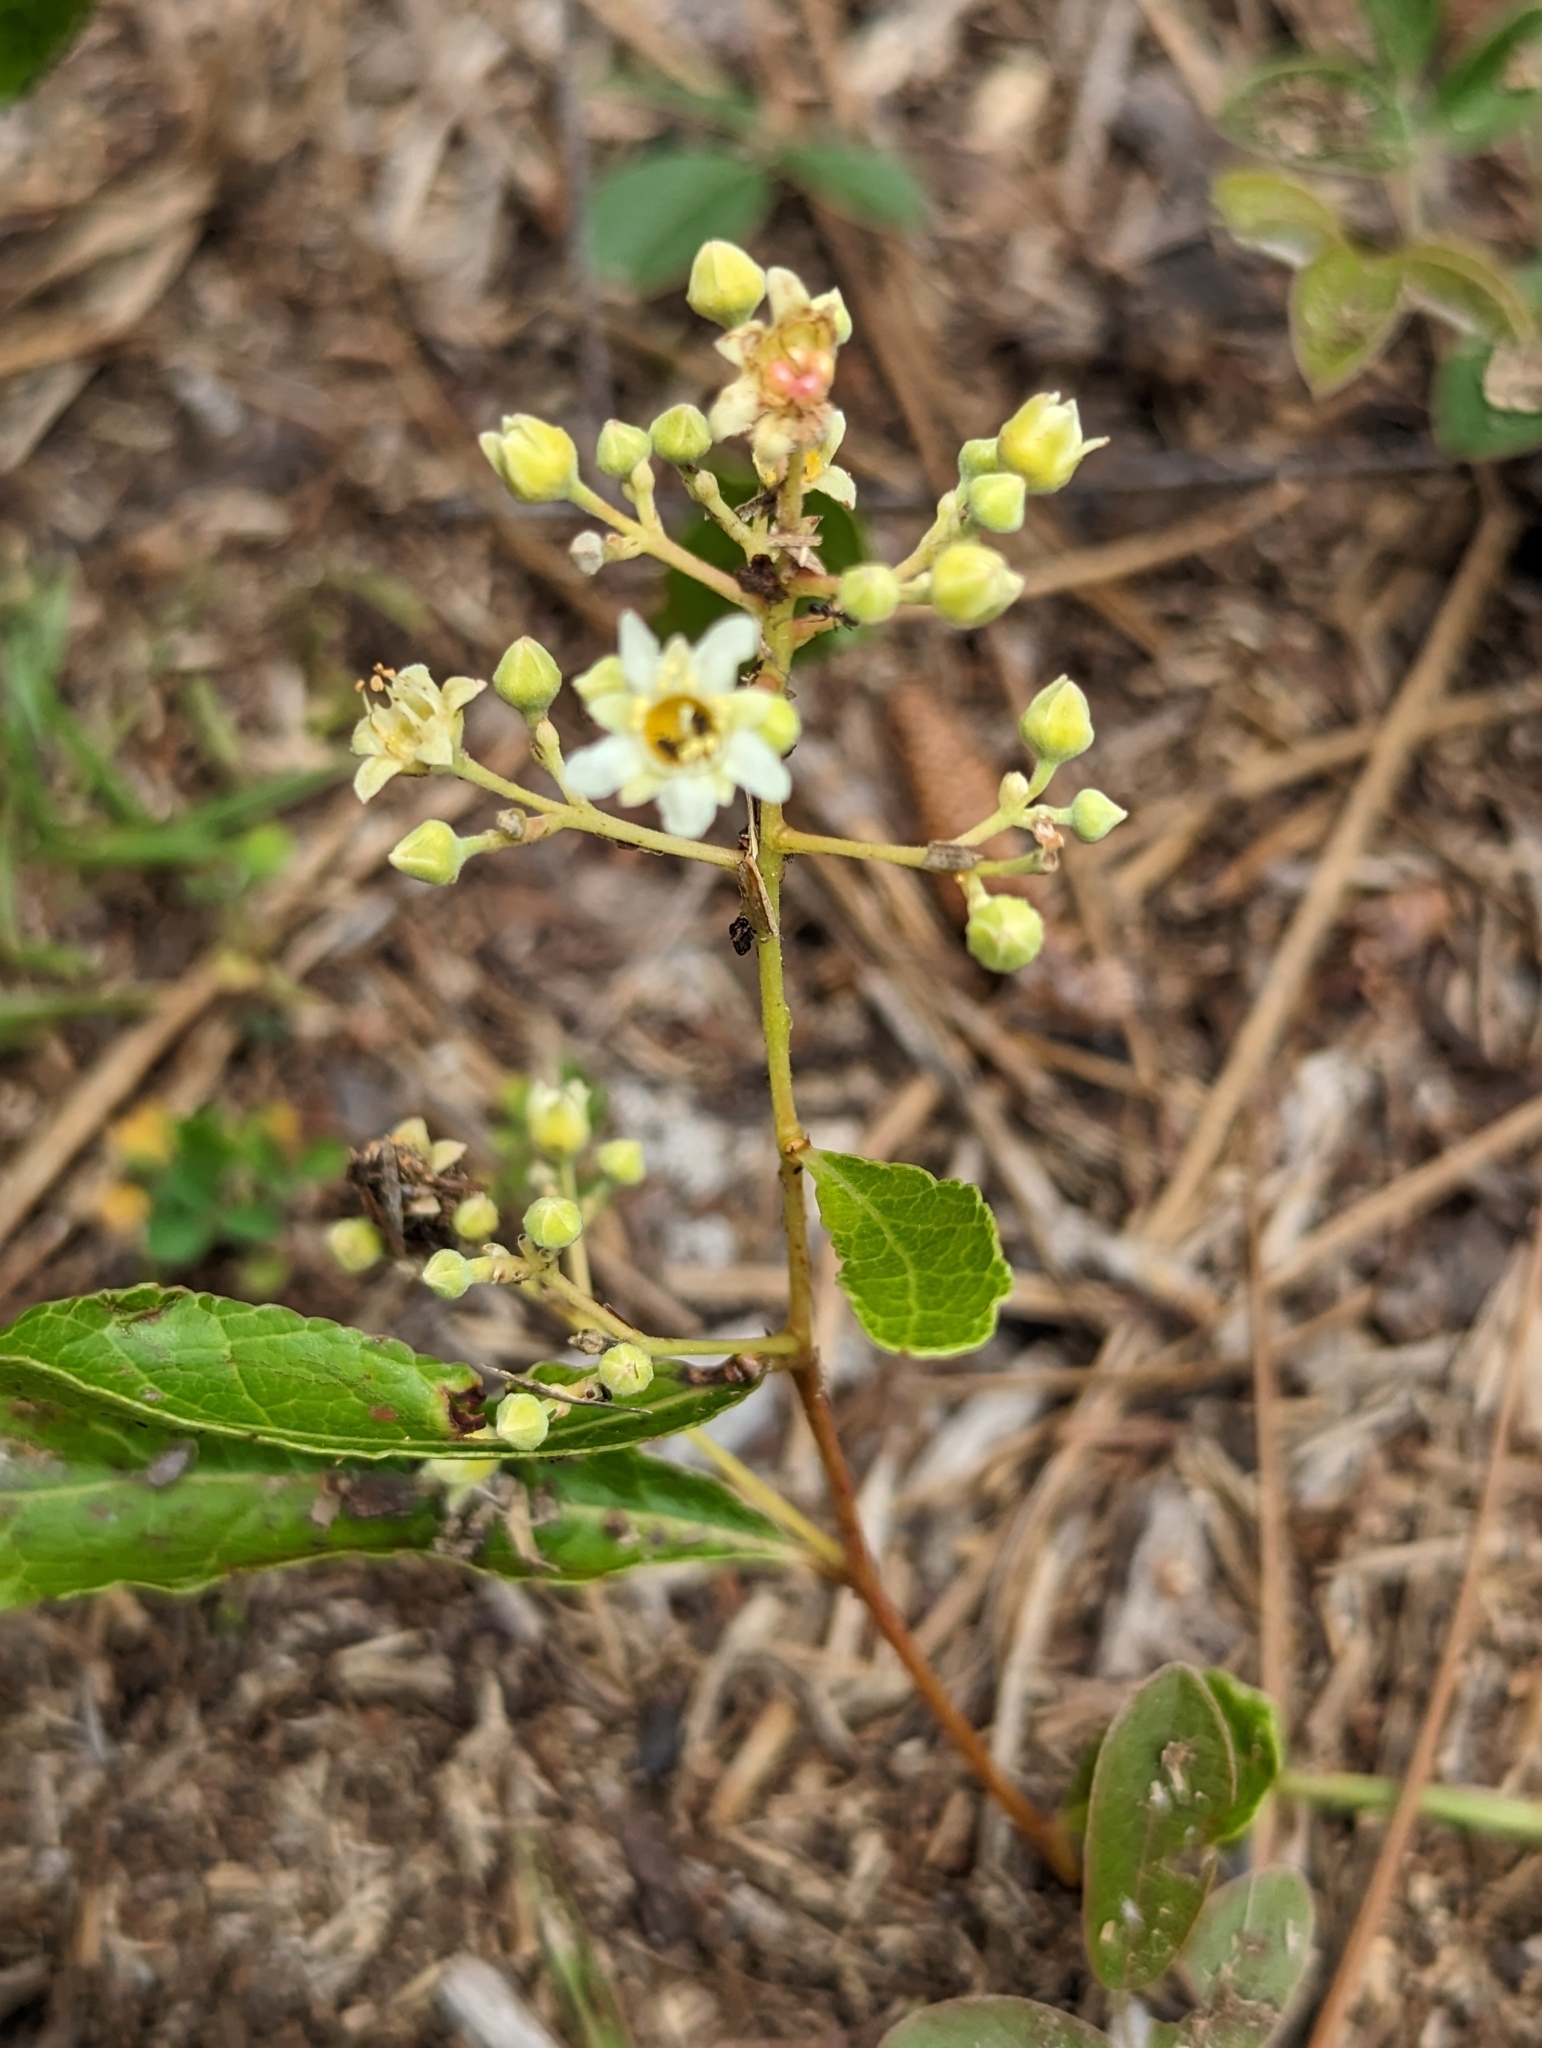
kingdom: Plantae
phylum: Tracheophyta
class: Magnoliopsida
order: Malpighiales
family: Chrysobalanaceae
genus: Geobalanus
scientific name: Geobalanus oblongifolius
